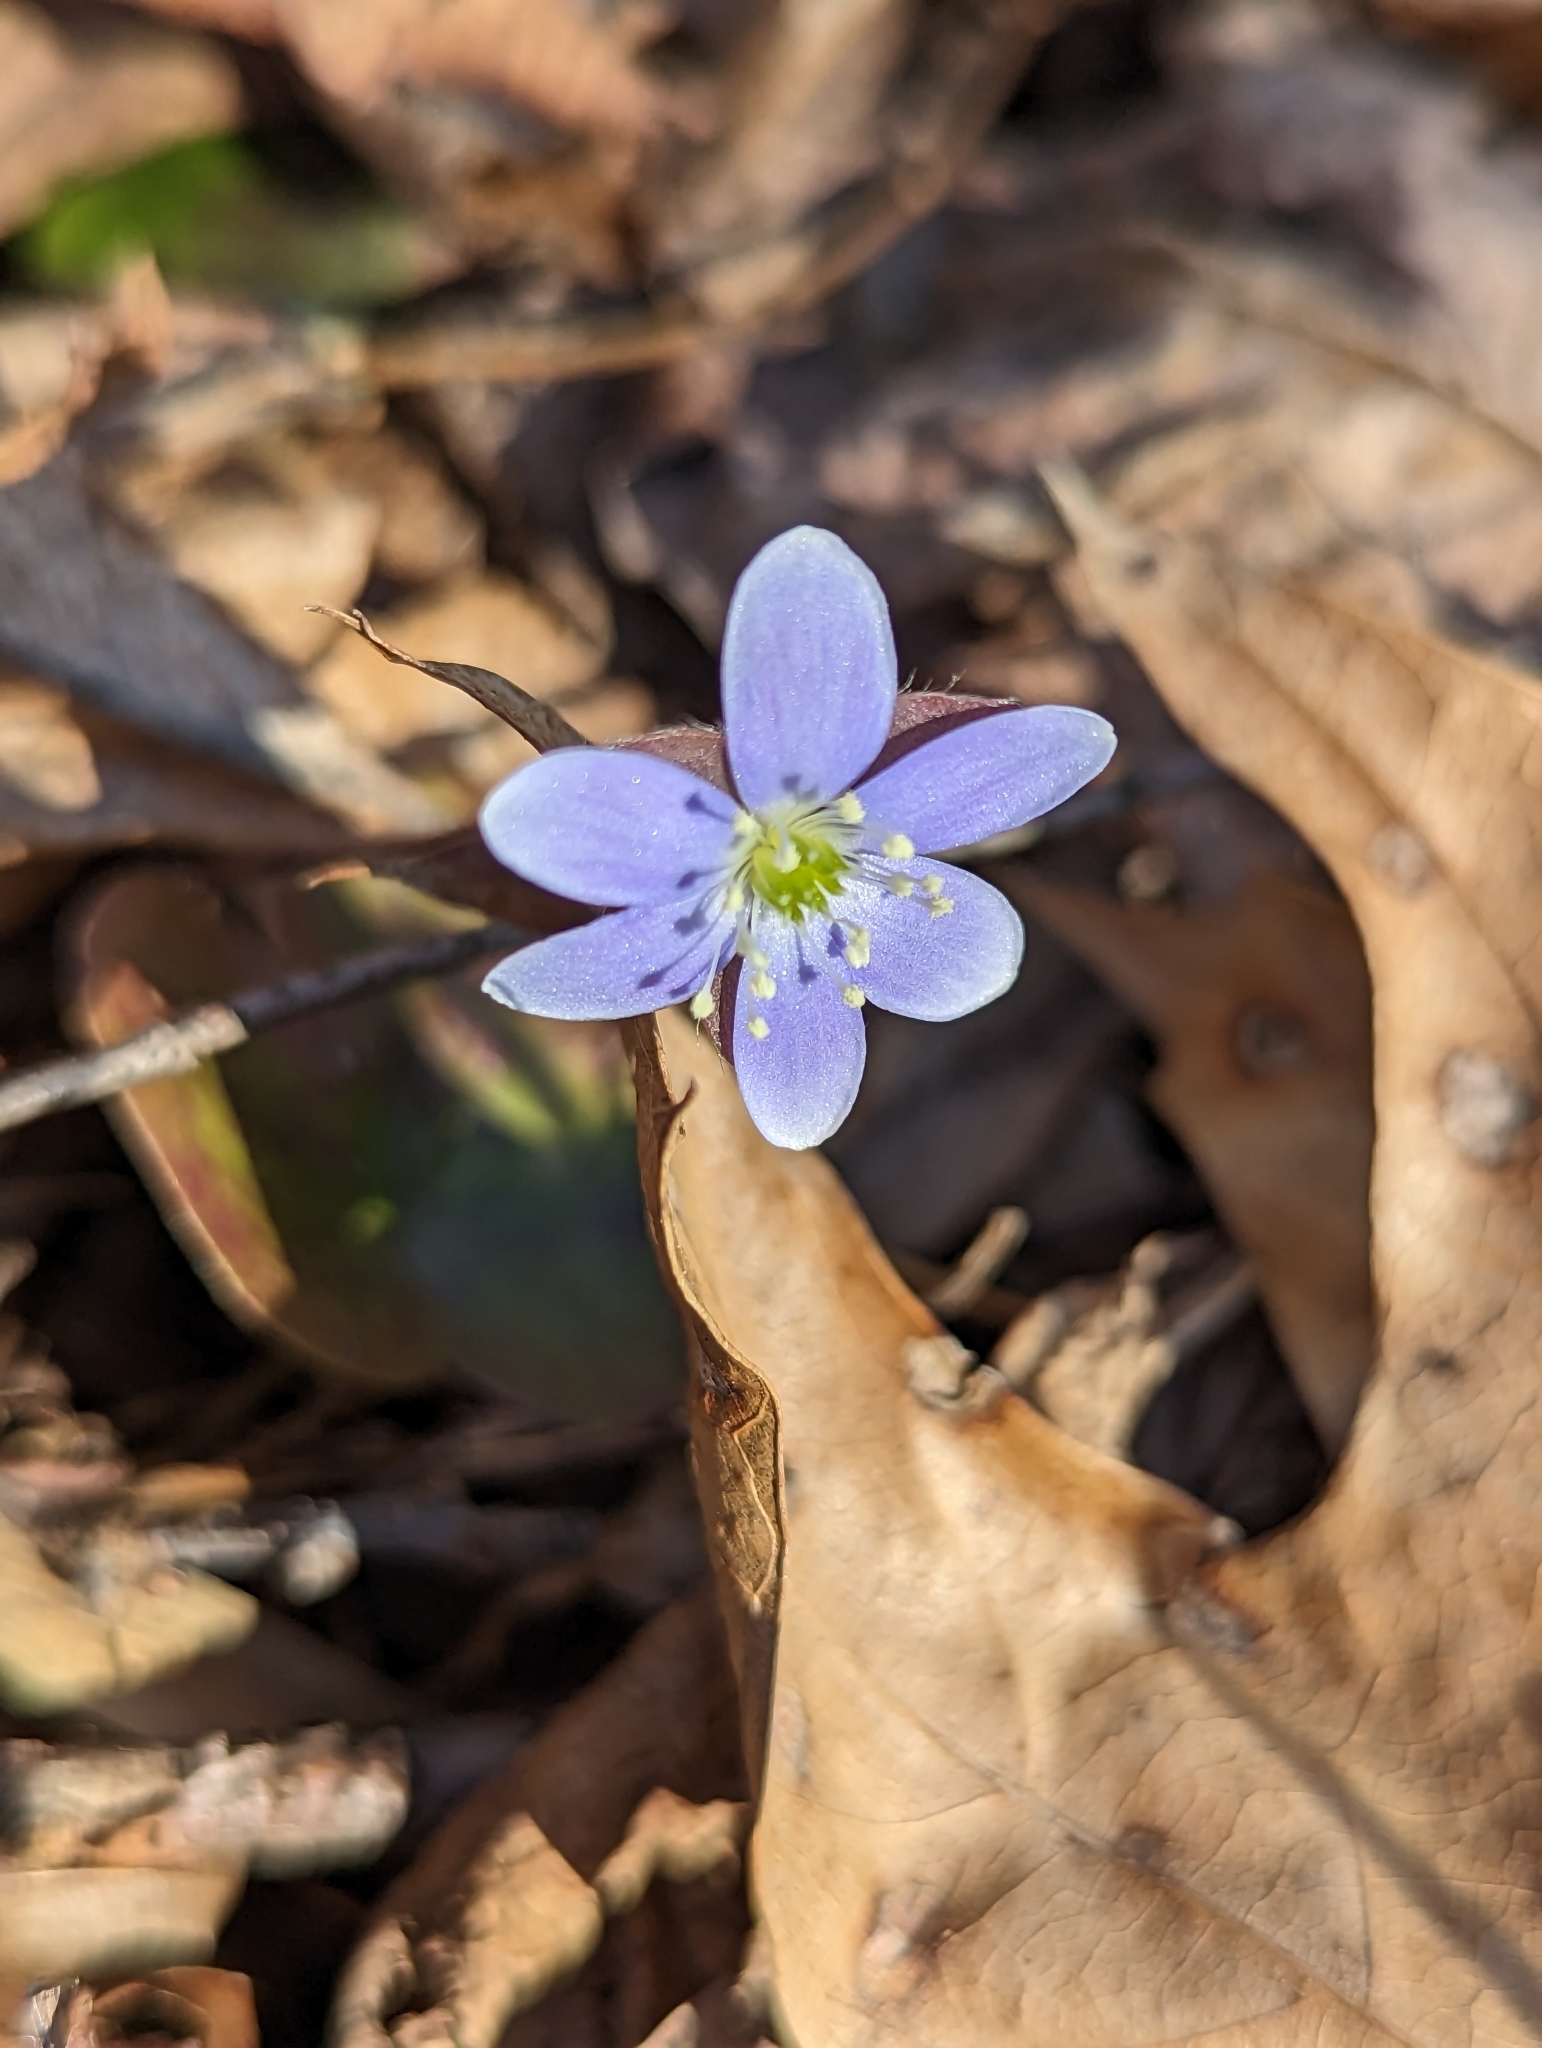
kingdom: Plantae
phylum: Tracheophyta
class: Magnoliopsida
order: Ranunculales
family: Ranunculaceae
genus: Hepatica
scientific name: Hepatica americana
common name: American hepatica
